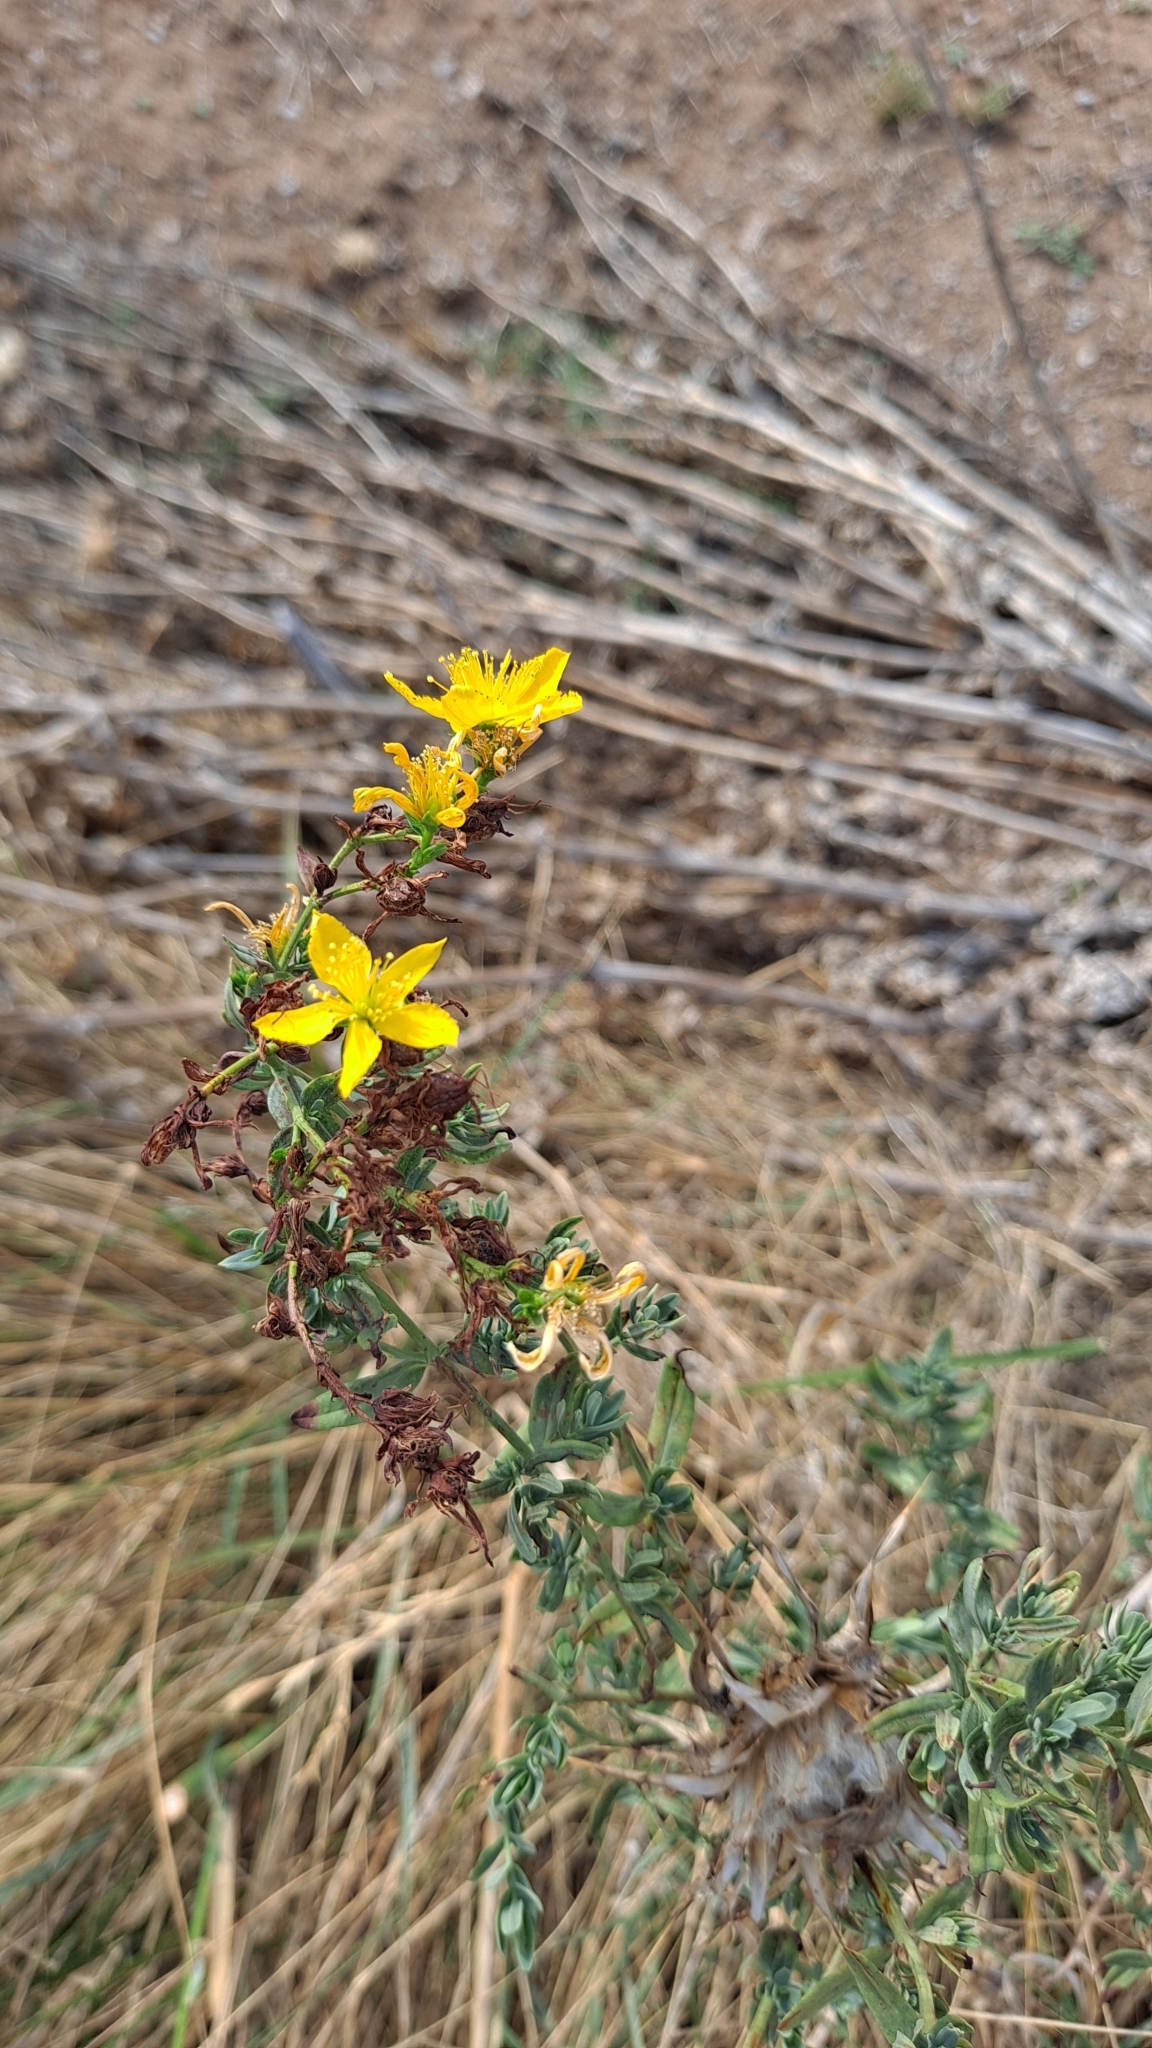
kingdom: Plantae
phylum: Tracheophyta
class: Magnoliopsida
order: Malpighiales
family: Hypericaceae
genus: Hypericum
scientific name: Hypericum perforatum
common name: Common st. johnswort
